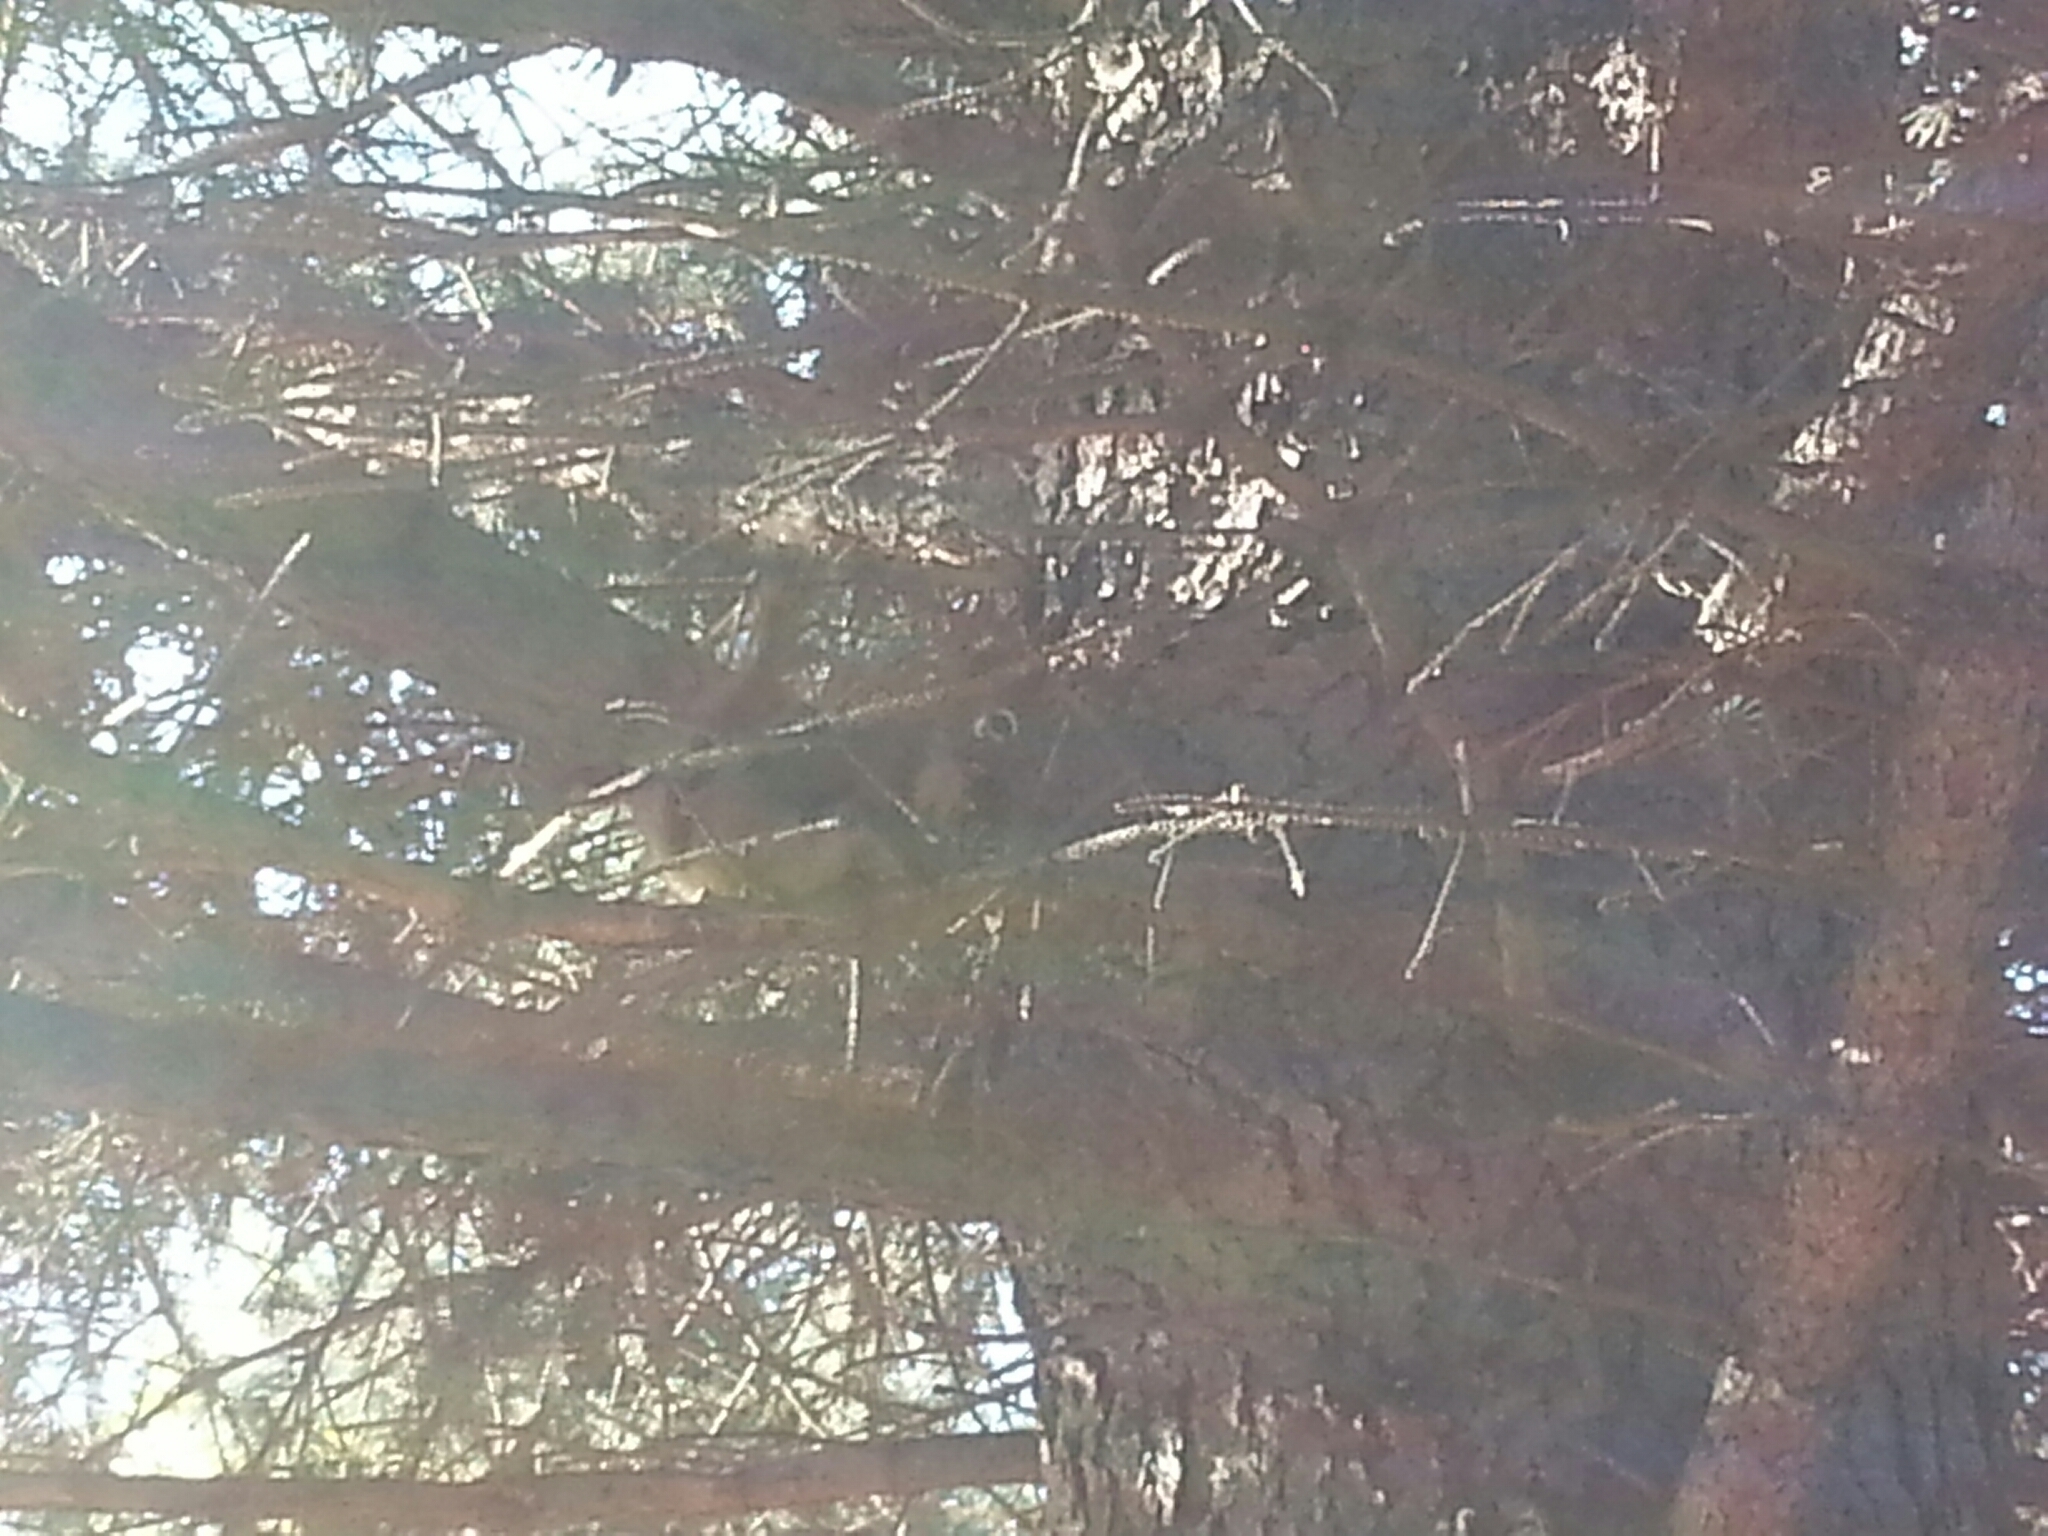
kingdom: Animalia
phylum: Chordata
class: Mammalia
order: Rodentia
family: Sciuridae
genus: Tamiasciurus
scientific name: Tamiasciurus hudsonicus
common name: Red squirrel
